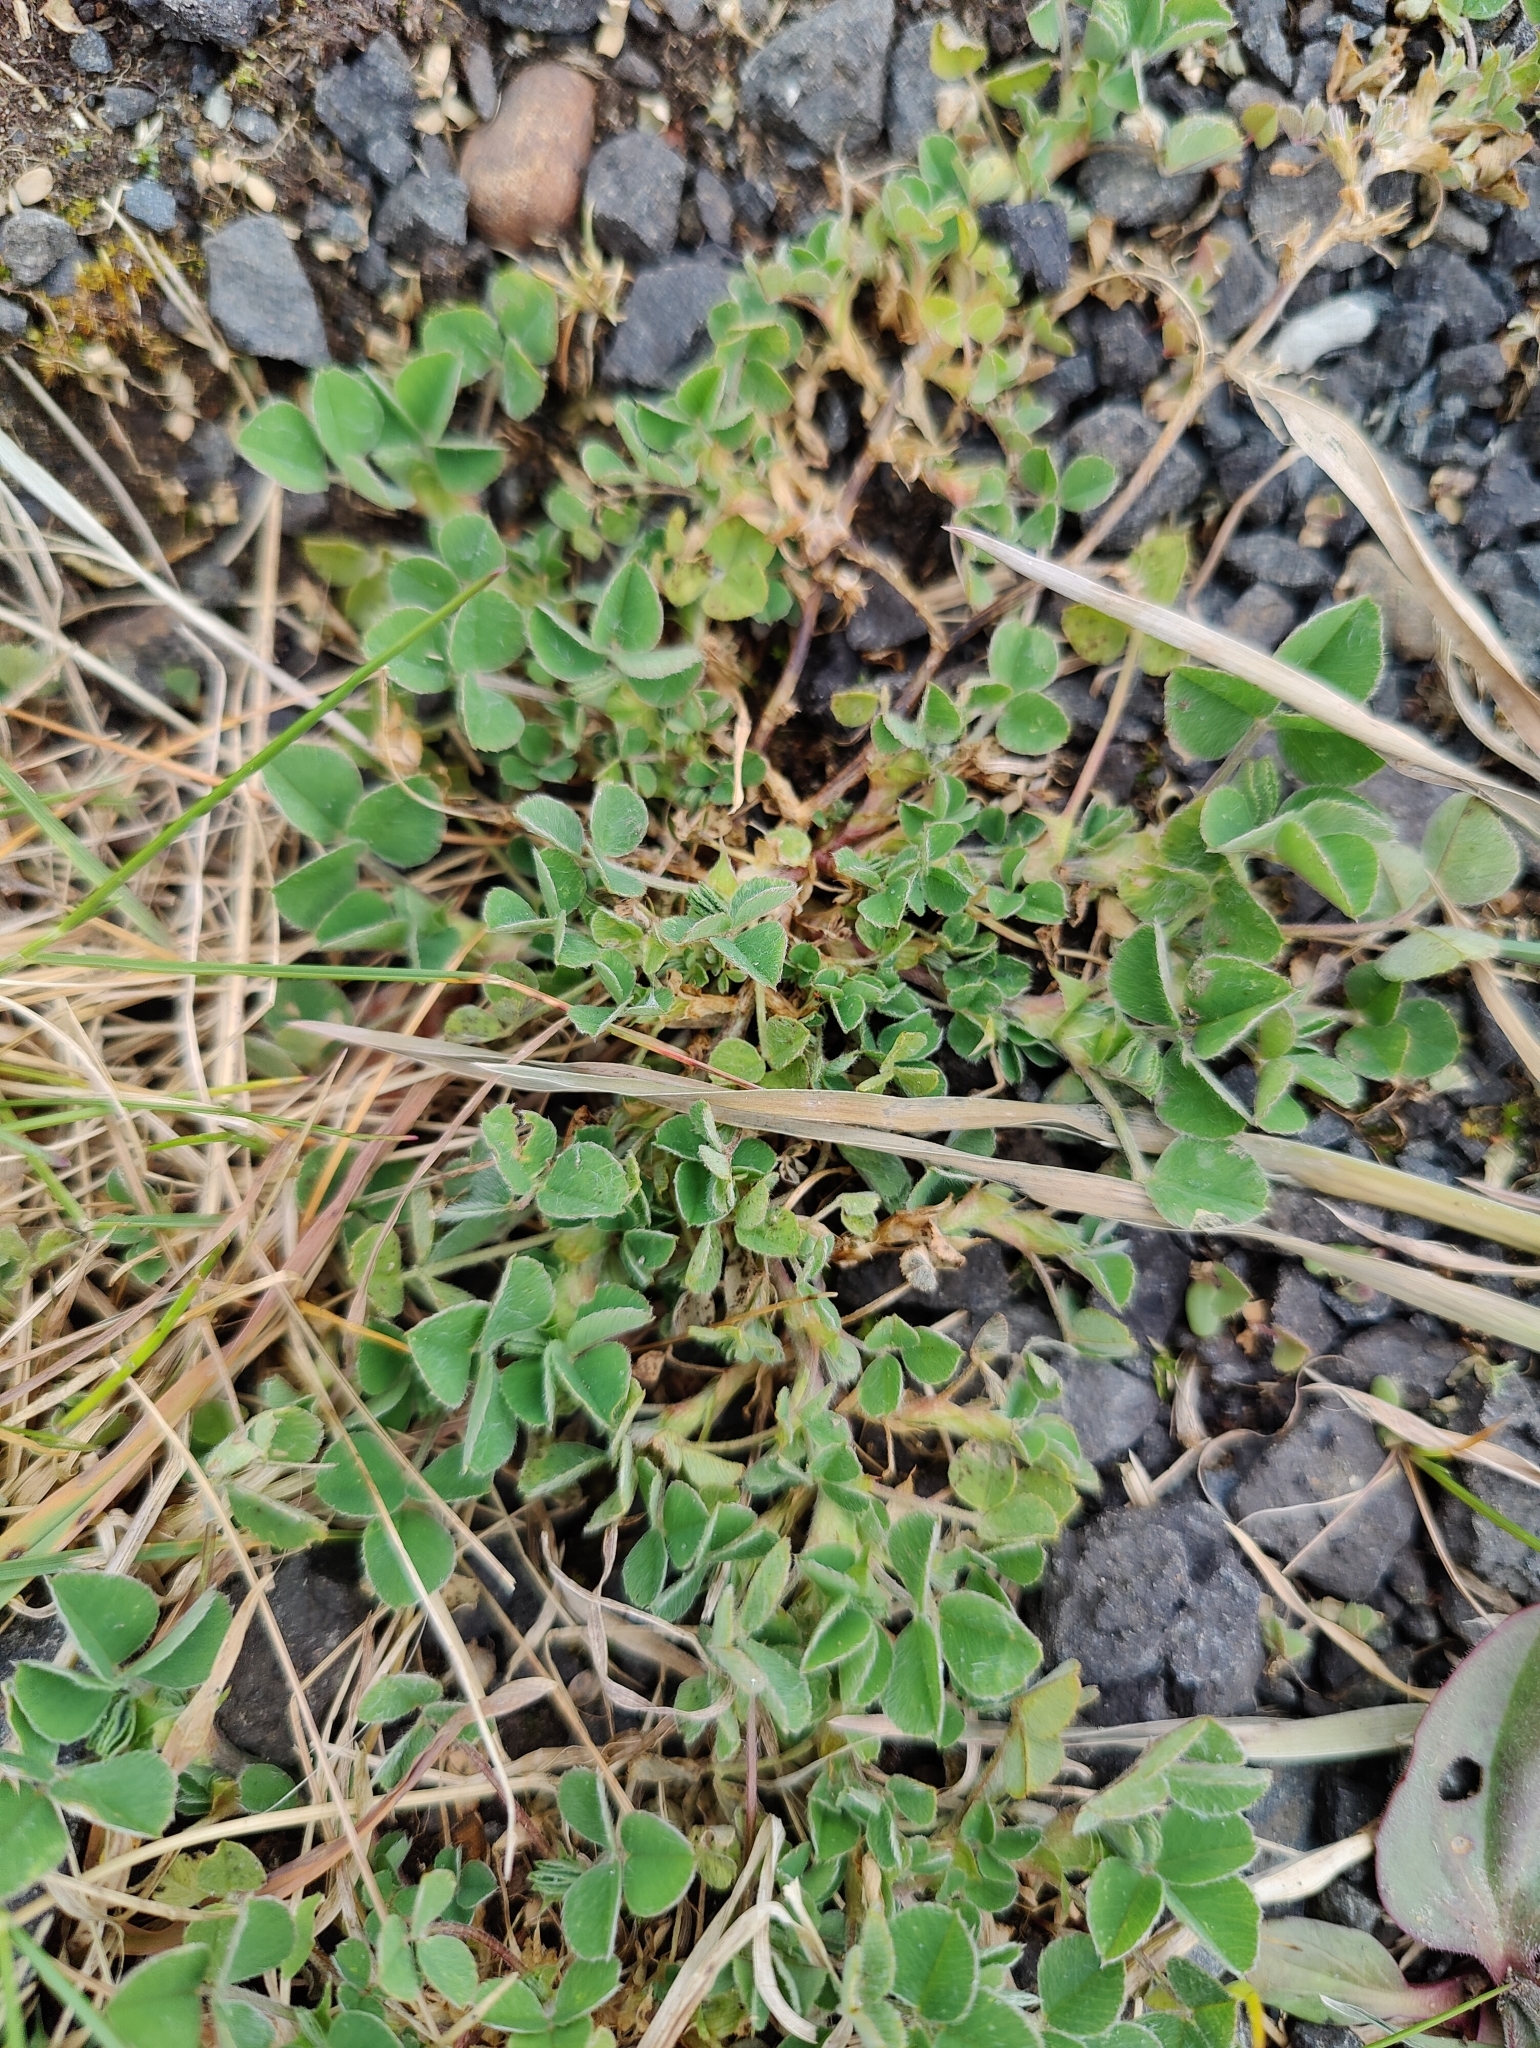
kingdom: Plantae
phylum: Tracheophyta
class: Magnoliopsida
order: Fabales
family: Fabaceae
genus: Medicago
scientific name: Medicago lupulina
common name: Black medick
